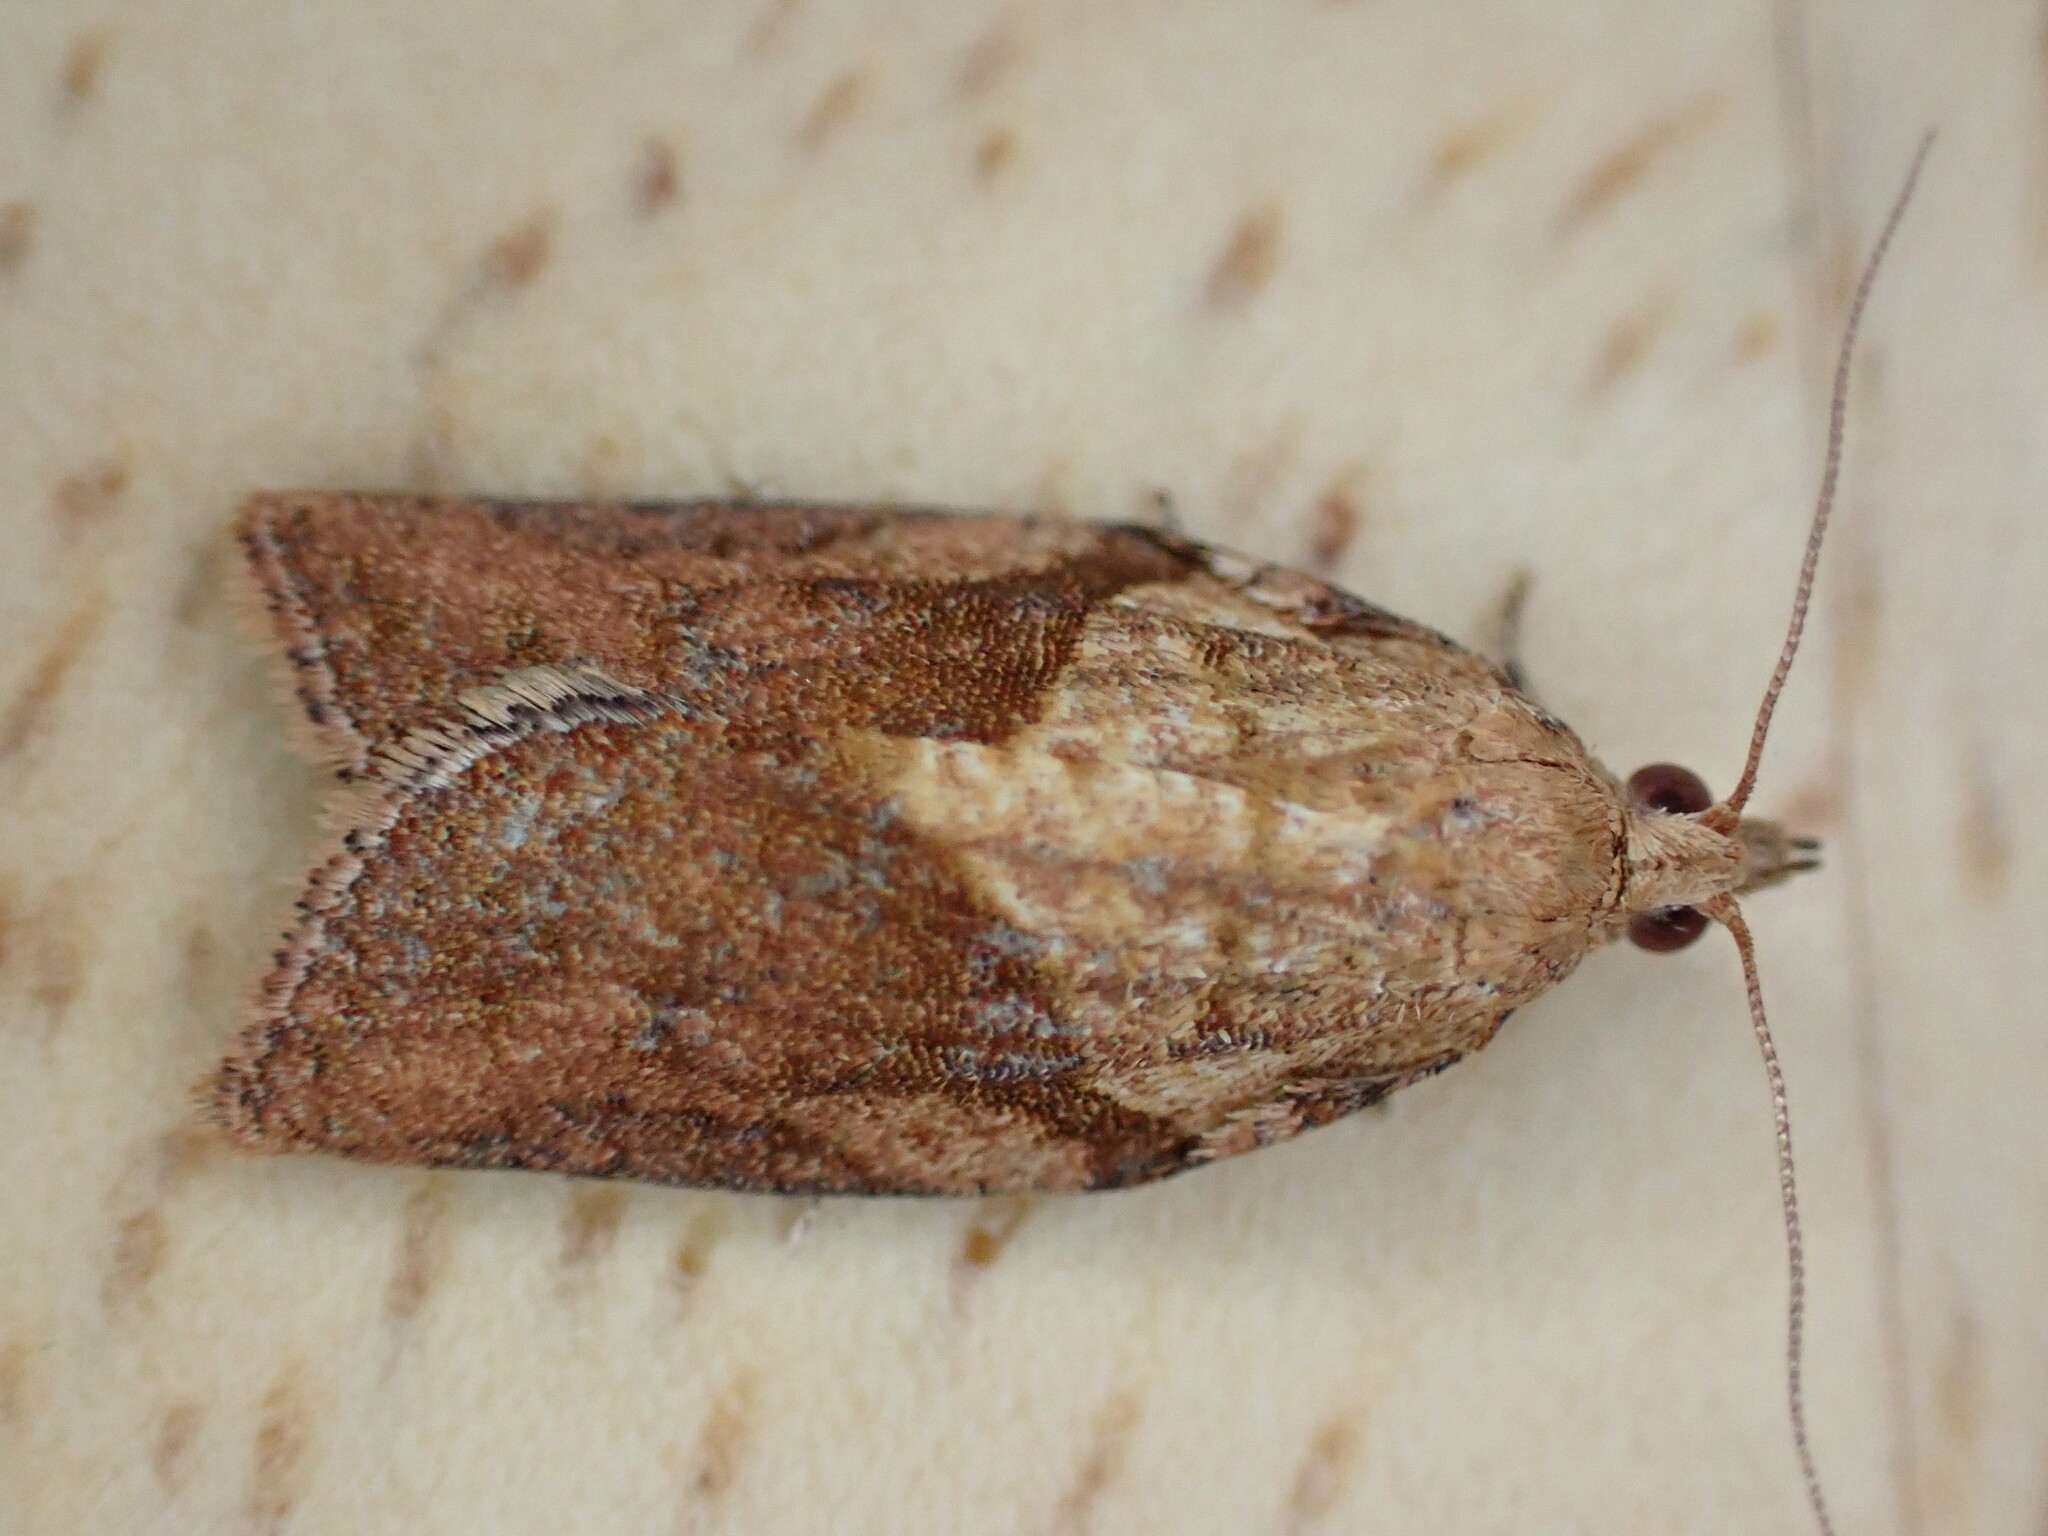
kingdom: Animalia
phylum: Arthropoda
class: Insecta
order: Lepidoptera
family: Tortricidae
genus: Epiphyas
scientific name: Epiphyas postvittana
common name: Light brown apple moth
